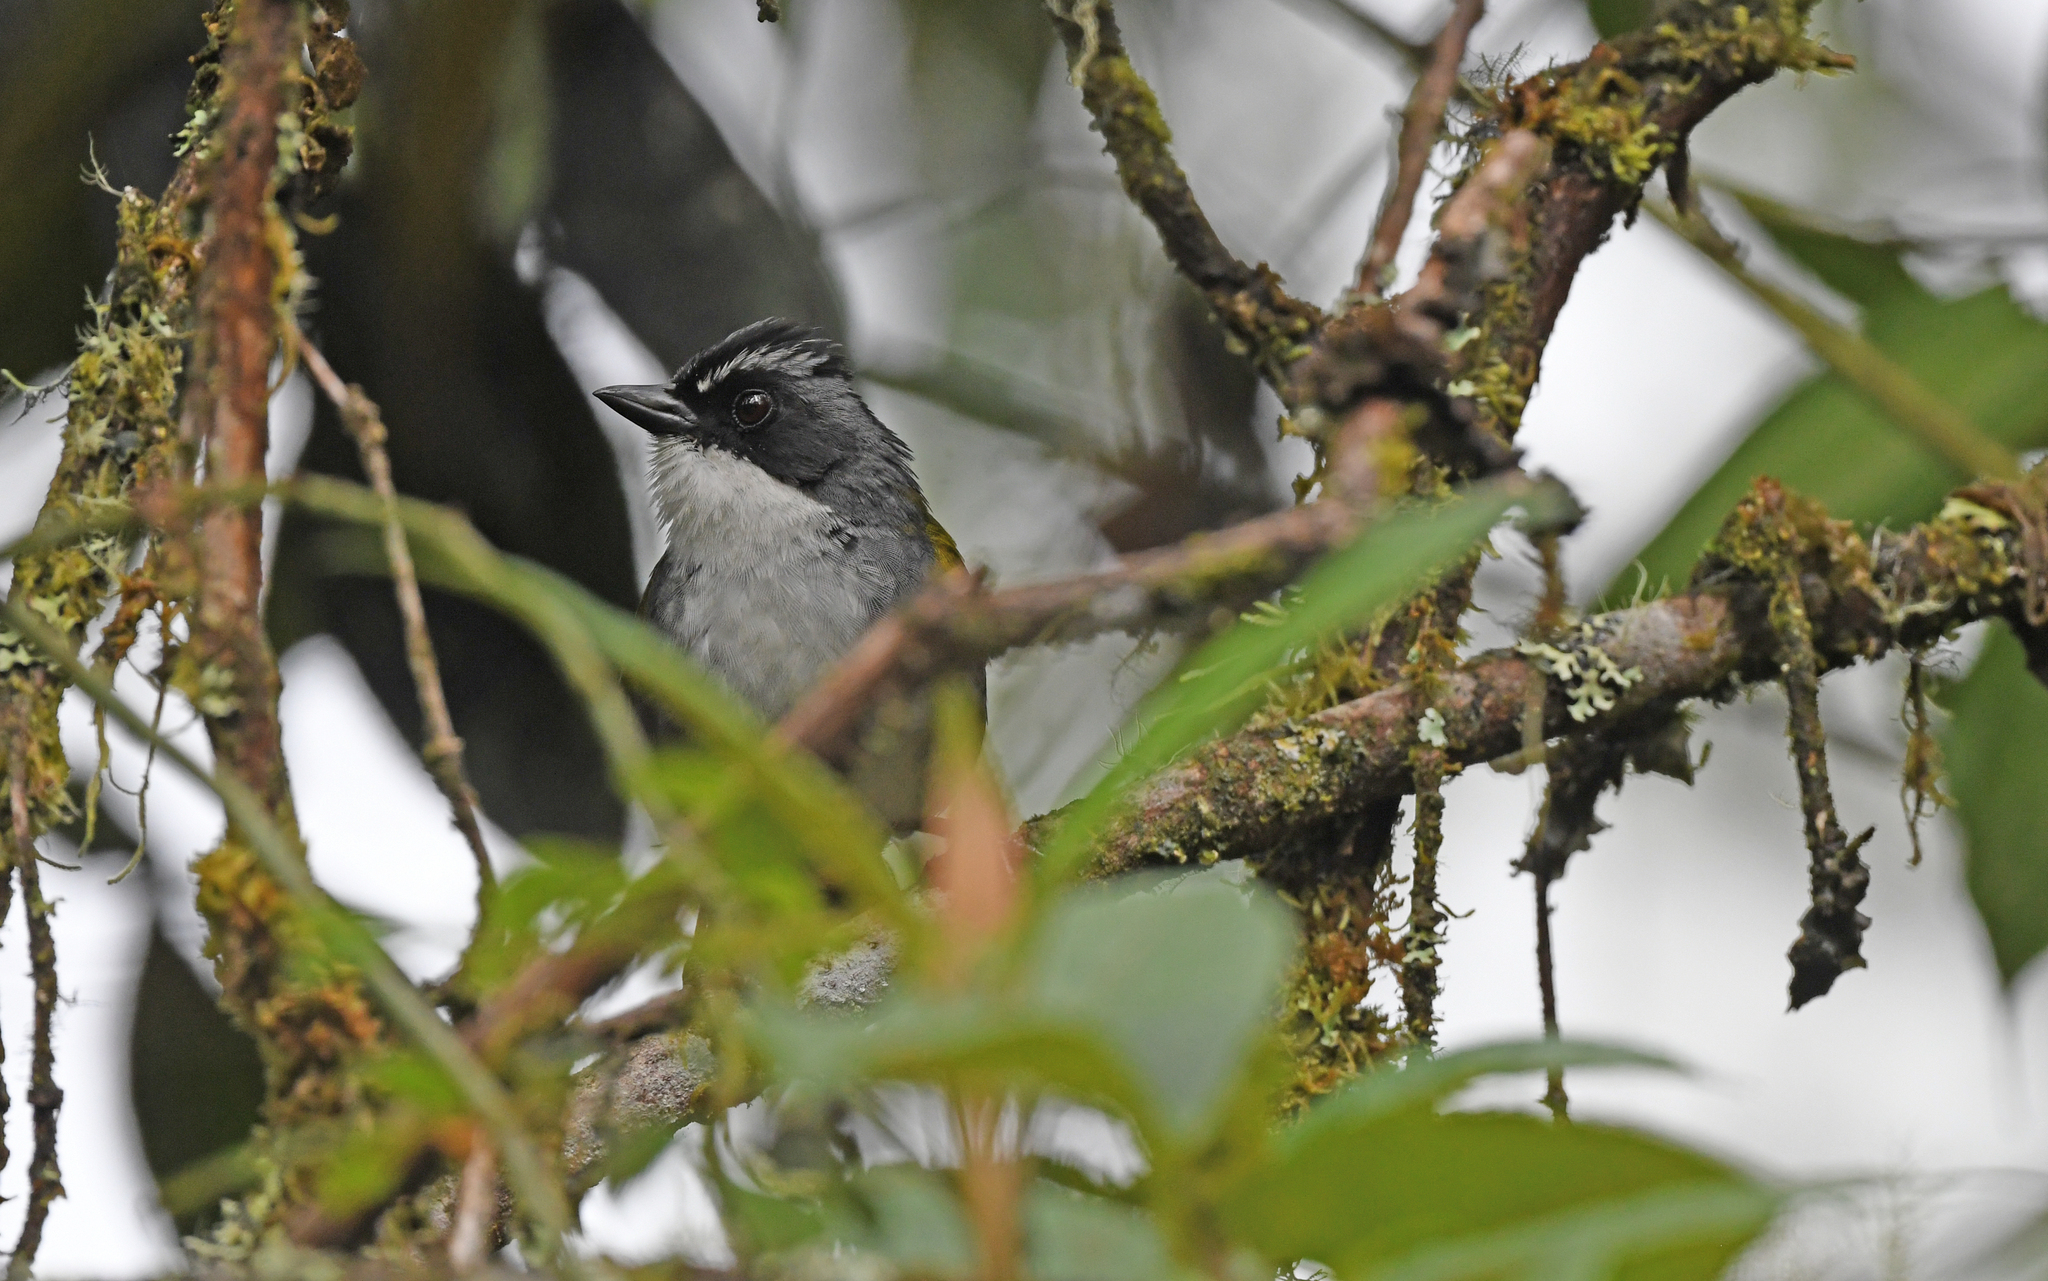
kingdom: Animalia
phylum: Chordata
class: Aves
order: Passeriformes
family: Passerellidae
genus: Arremon
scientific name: Arremon assimilis
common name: Grey-browed brushfinch
